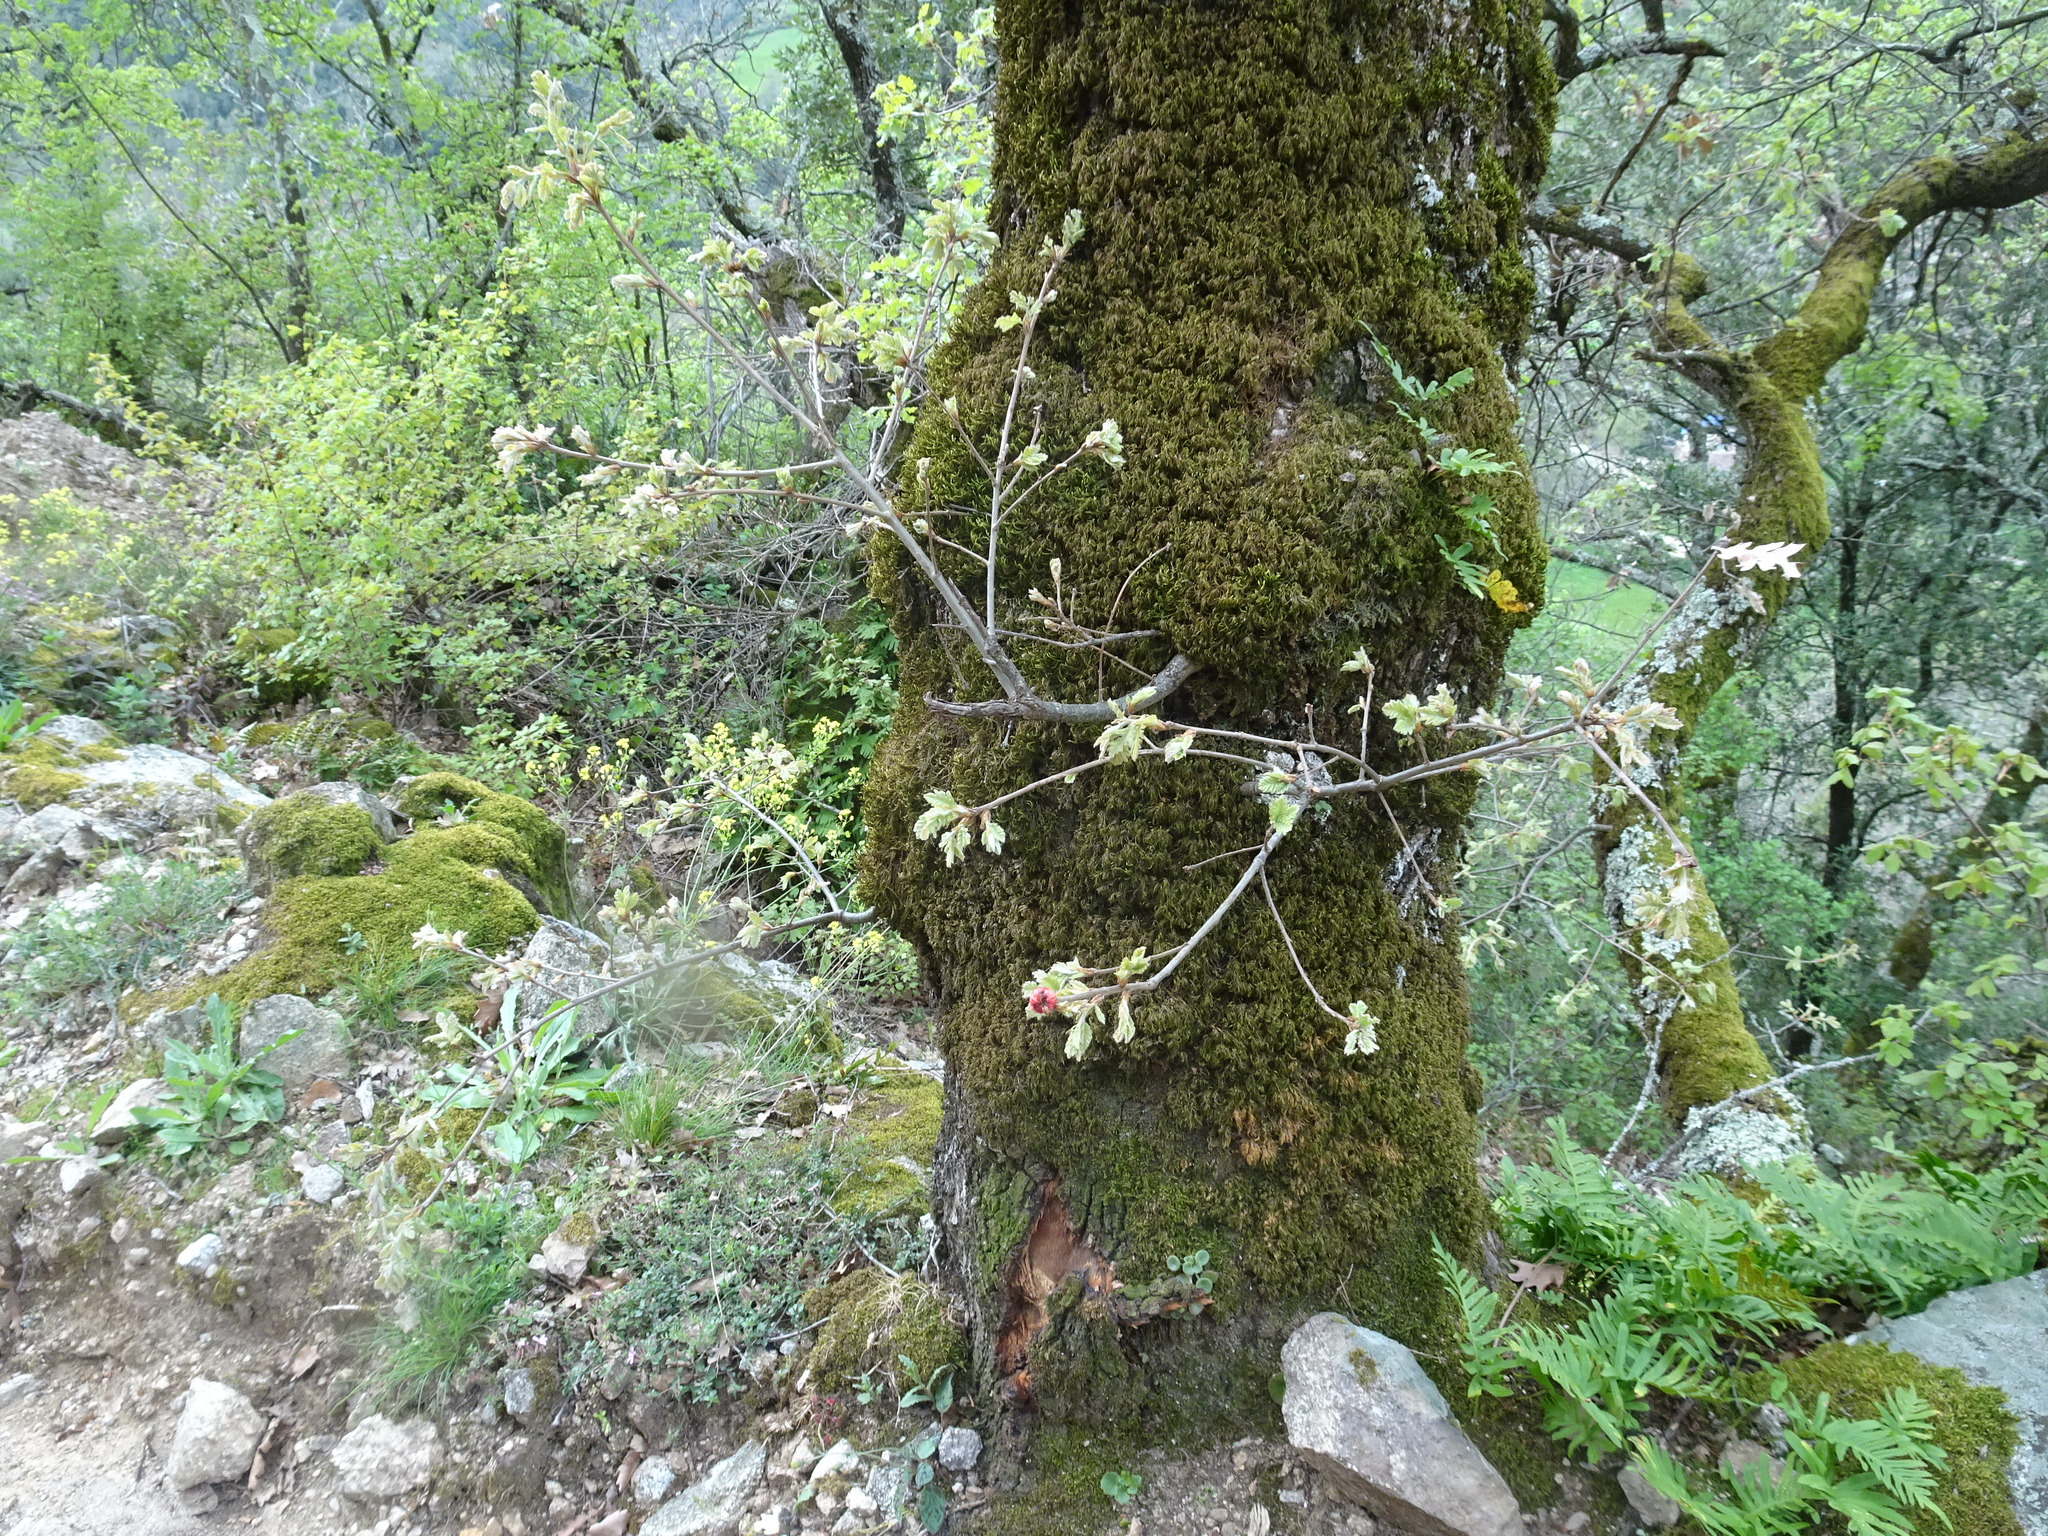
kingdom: Animalia
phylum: Arthropoda
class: Insecta
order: Hymenoptera
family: Cynipidae
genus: Biorhiza
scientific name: Biorhiza pallida
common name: Oak apple
